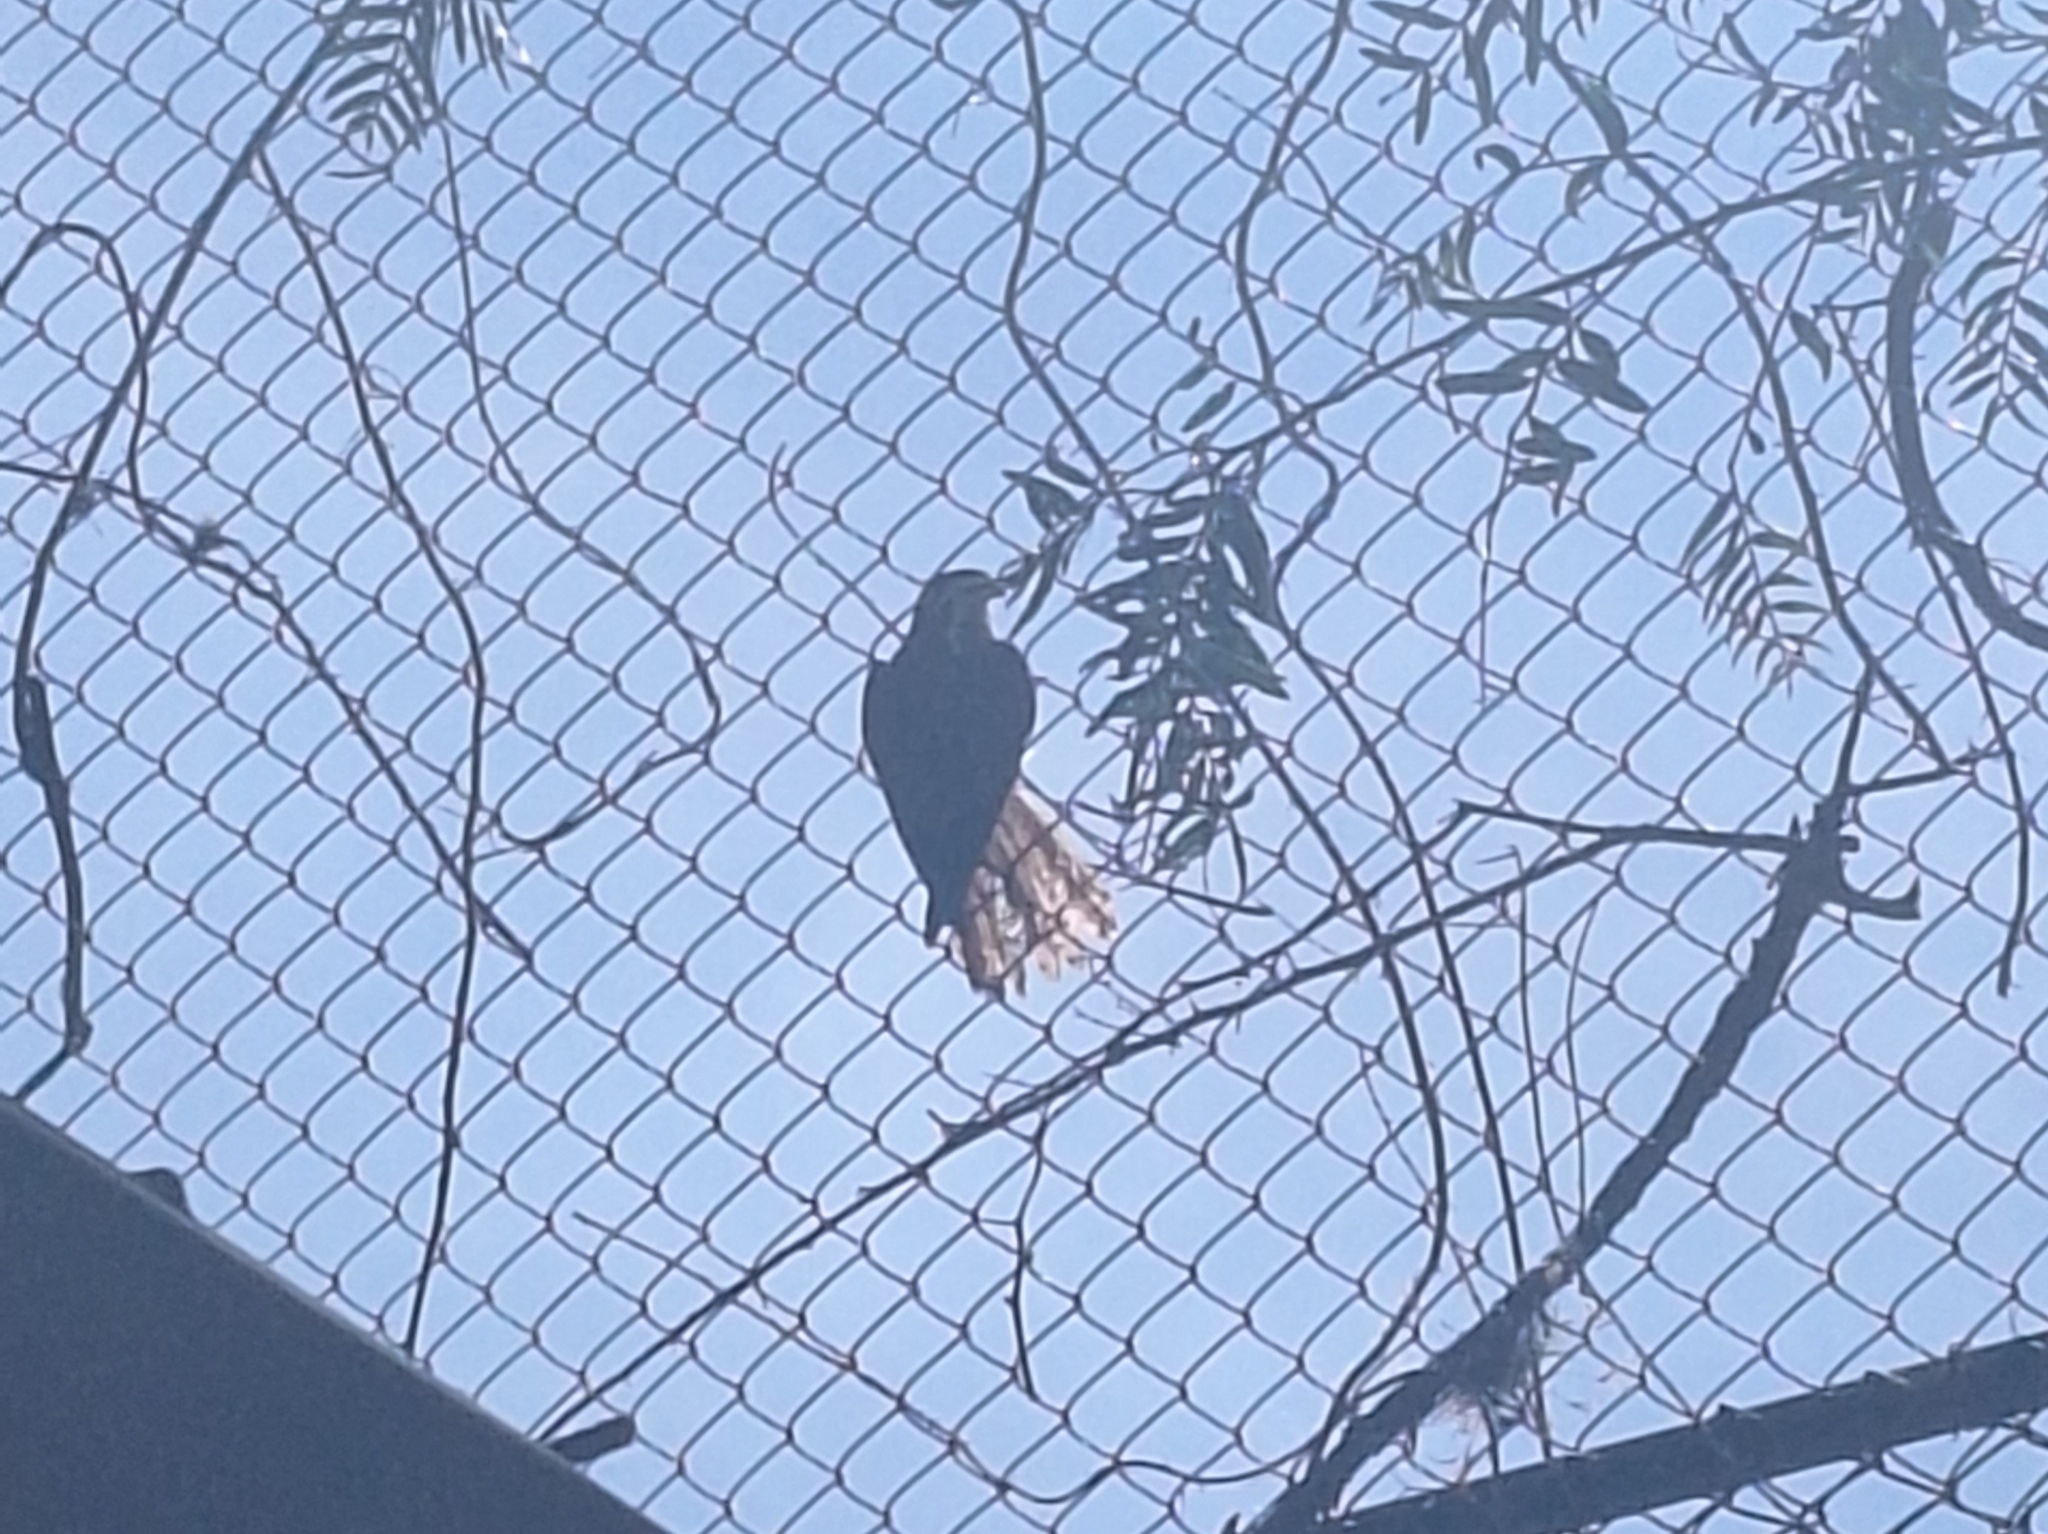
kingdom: Animalia
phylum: Chordata
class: Aves
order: Falconiformes
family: Falconidae
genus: Falco
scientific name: Falco sparverius
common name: American kestrel
